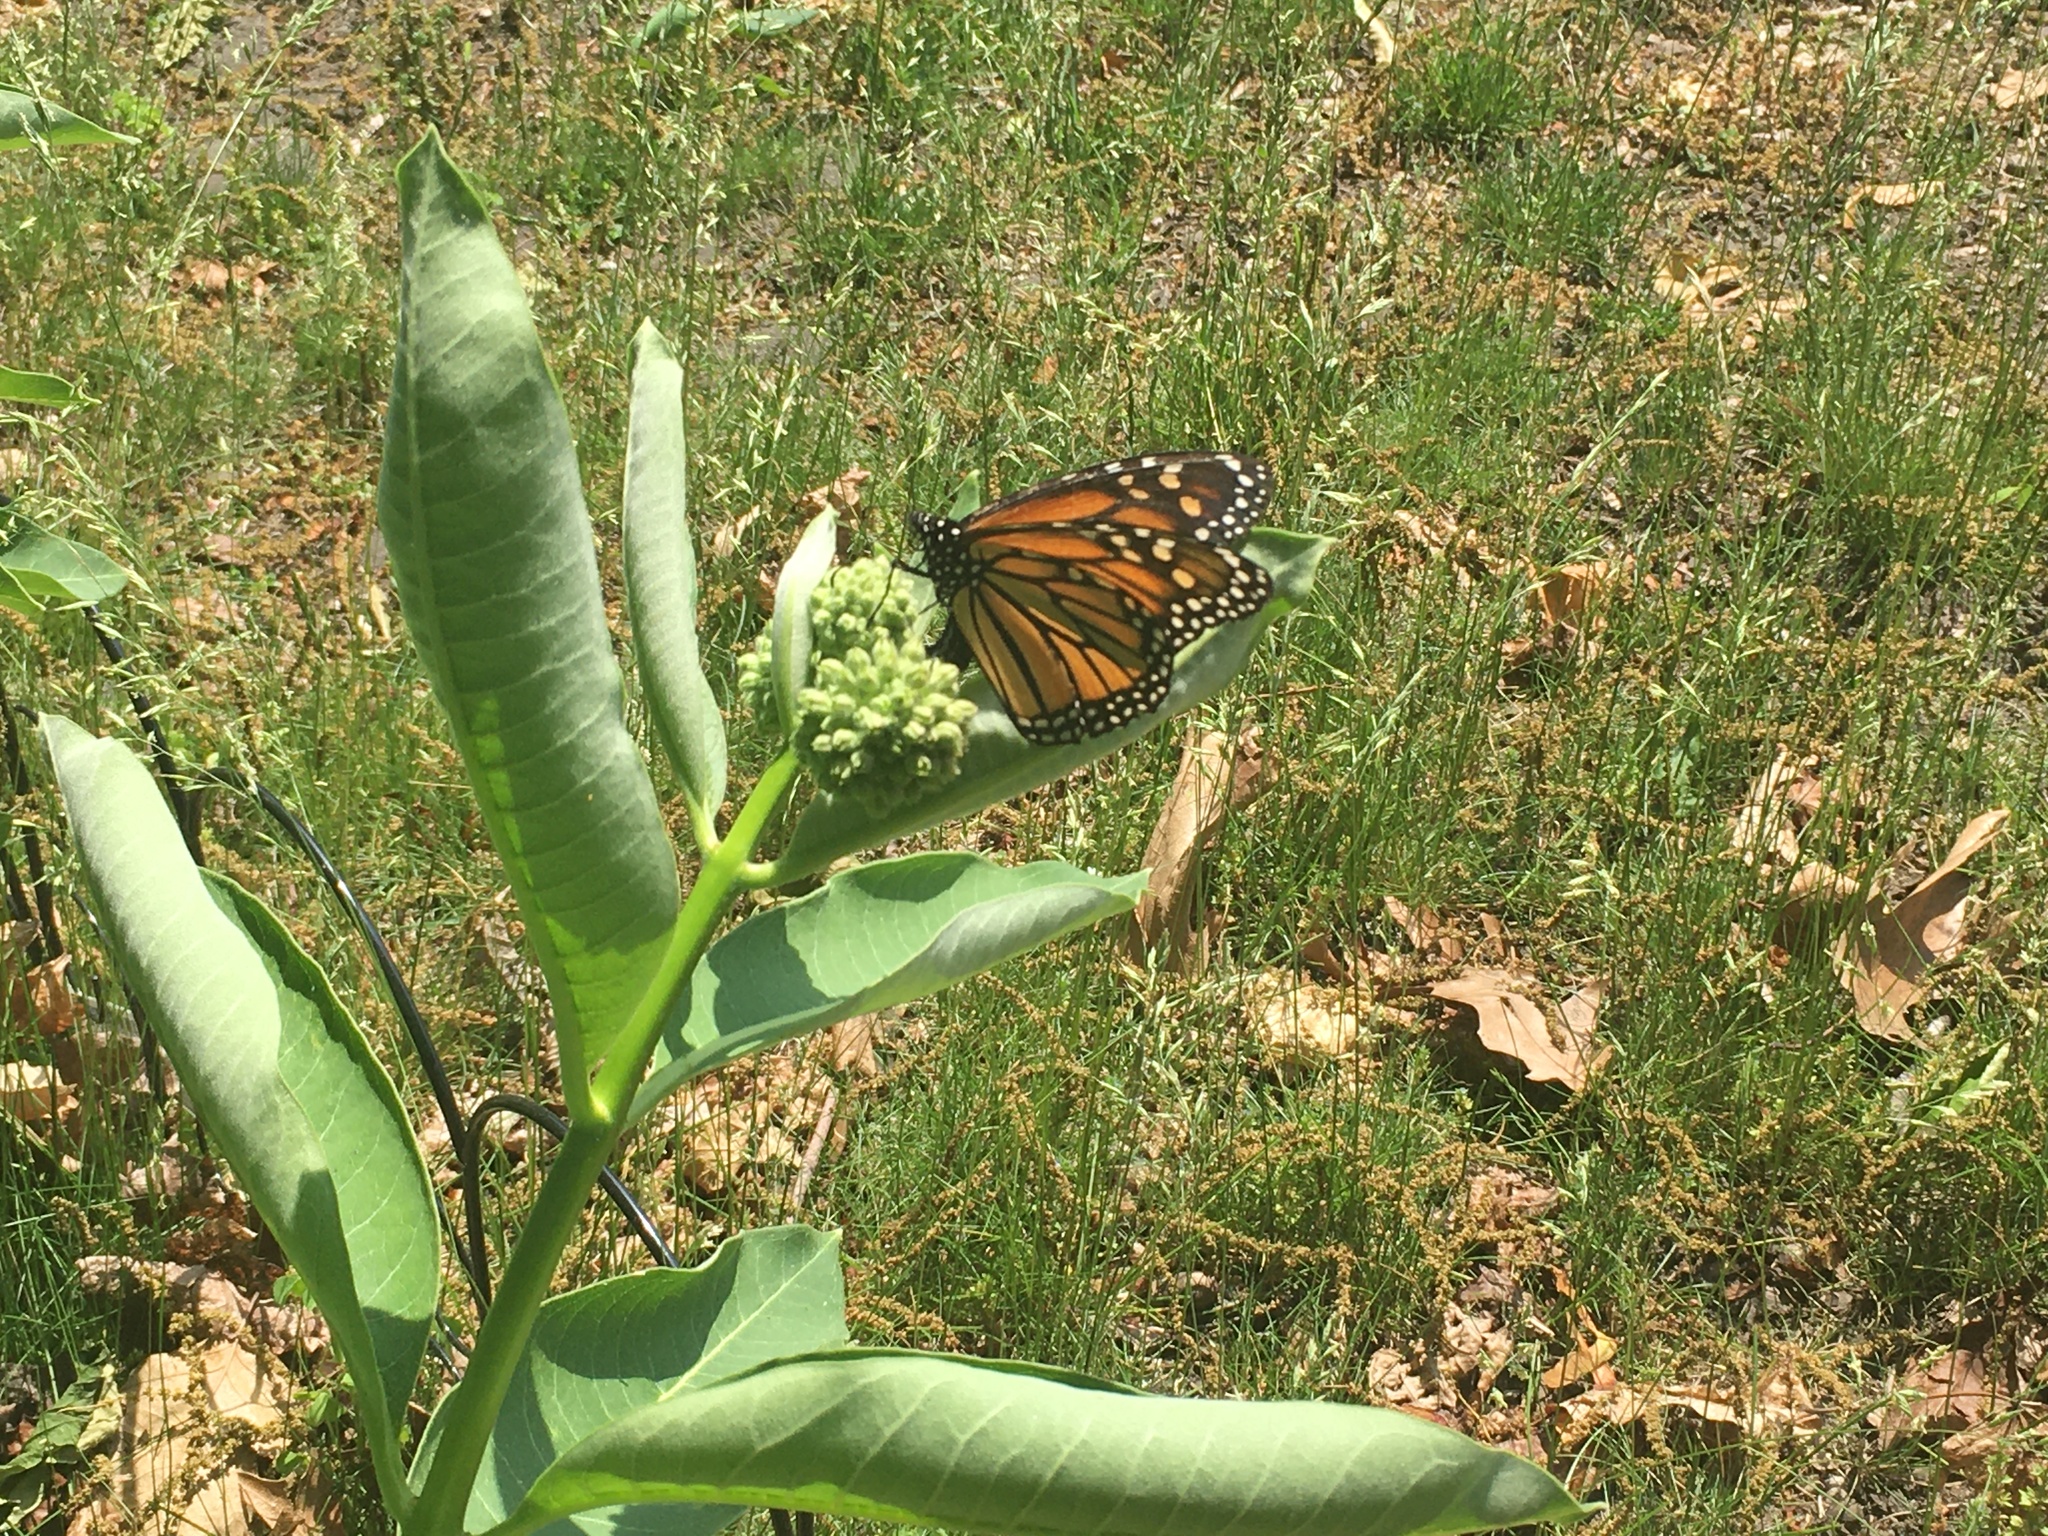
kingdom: Animalia
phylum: Arthropoda
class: Insecta
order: Lepidoptera
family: Nymphalidae
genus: Danaus
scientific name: Danaus plexippus
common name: Monarch
